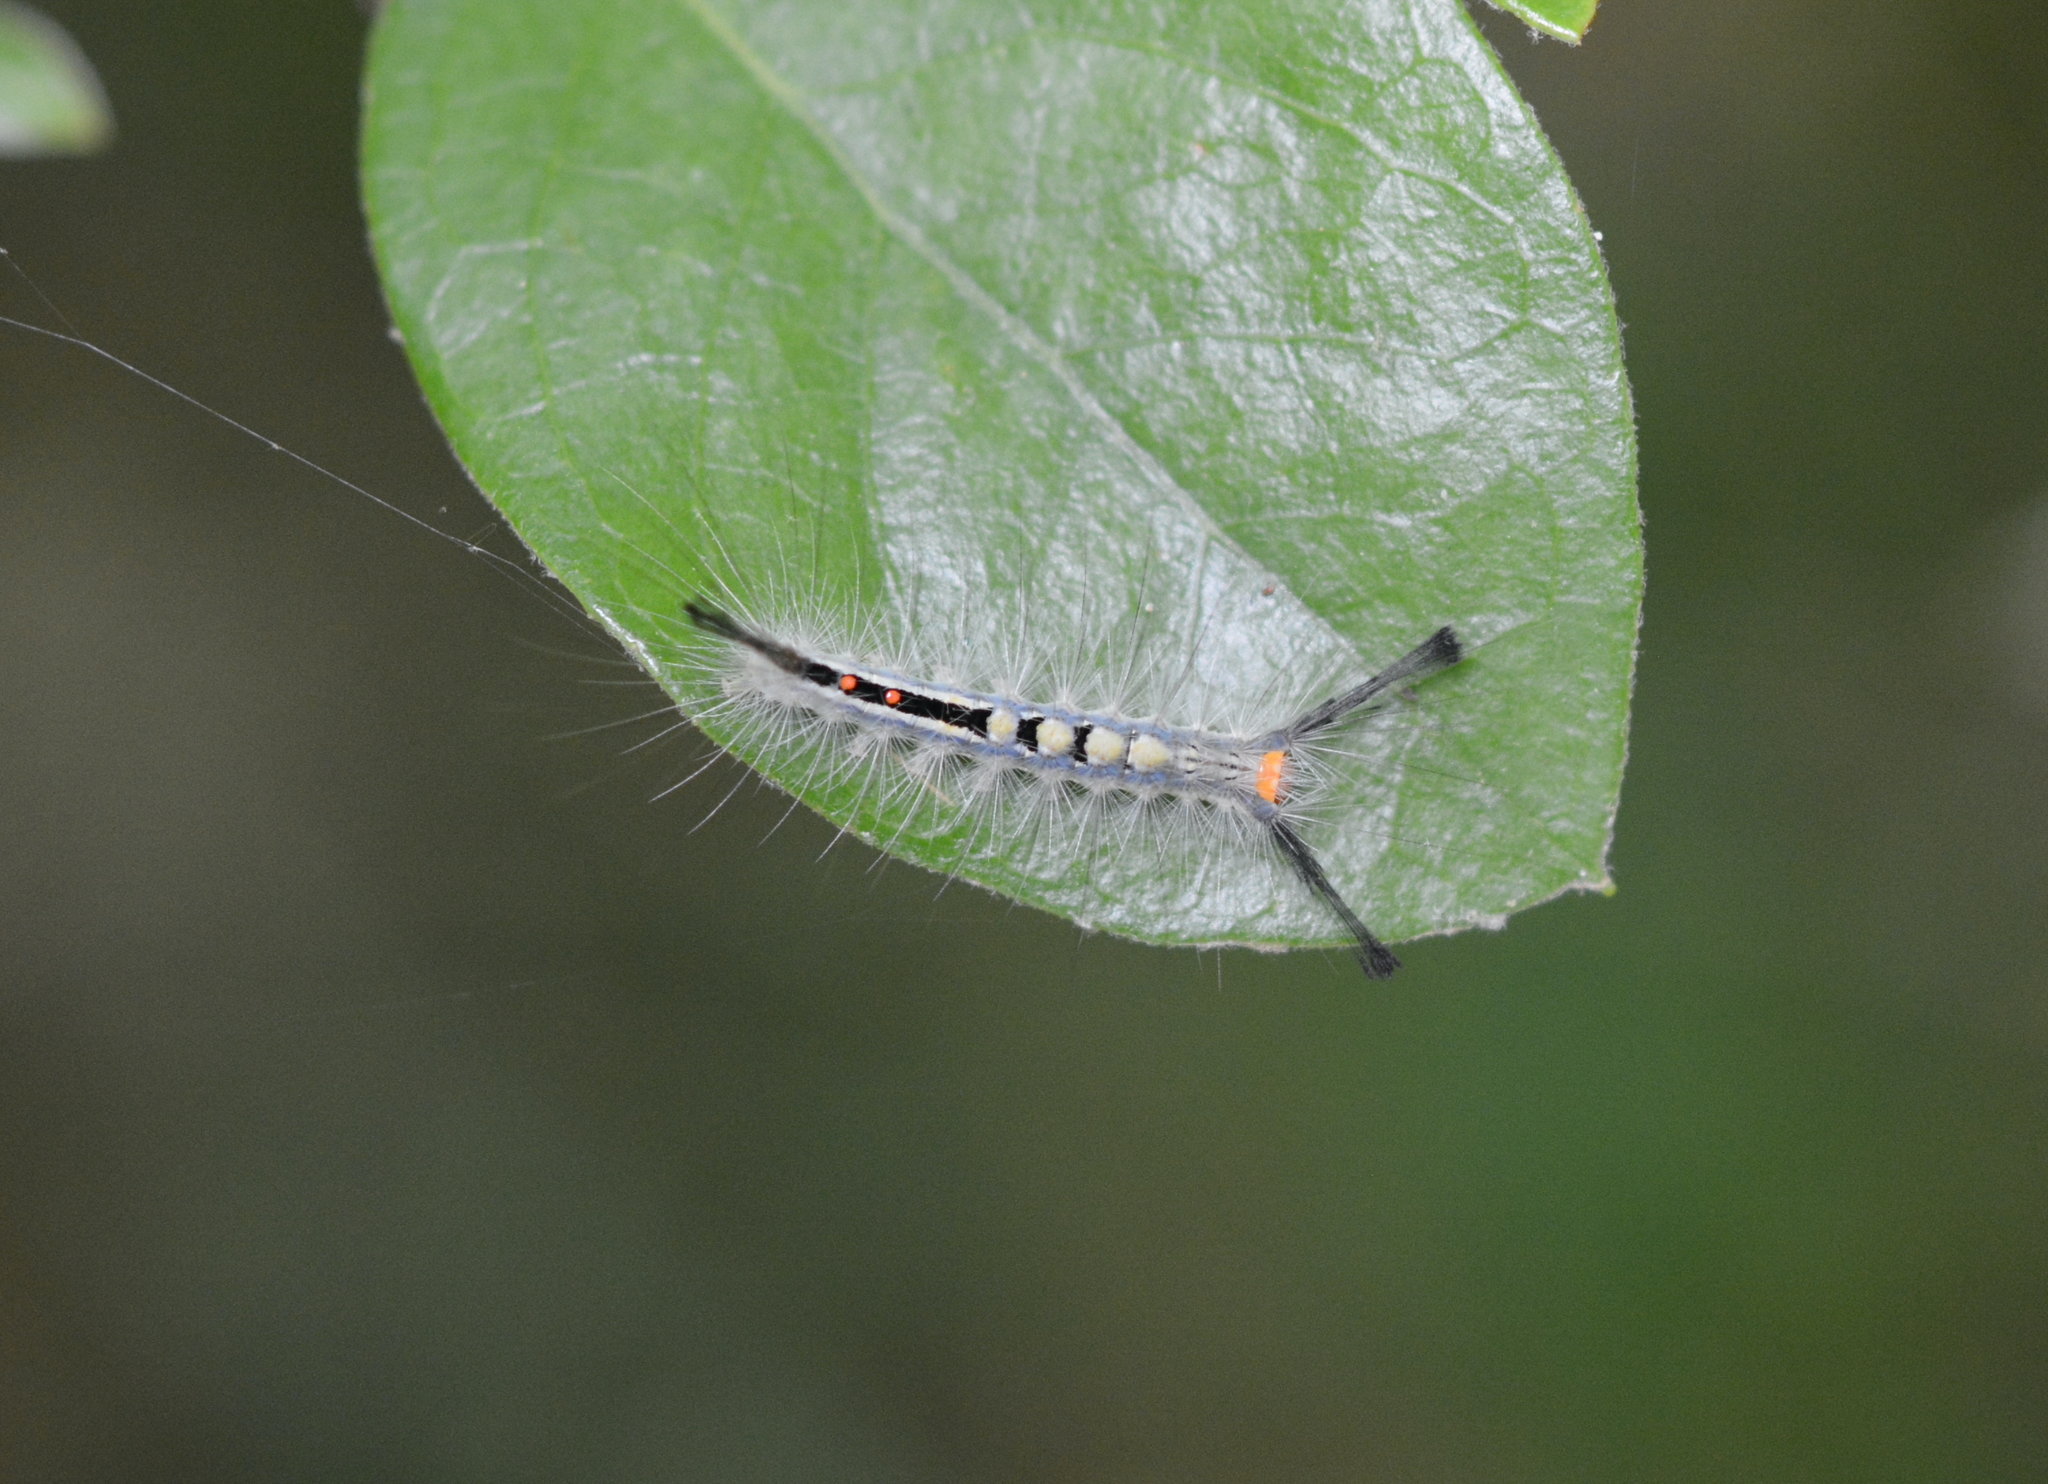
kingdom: Animalia
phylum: Arthropoda
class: Insecta
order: Lepidoptera
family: Erebidae
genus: Orgyia
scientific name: Orgyia leucostigma
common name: White-marked tussock moth
